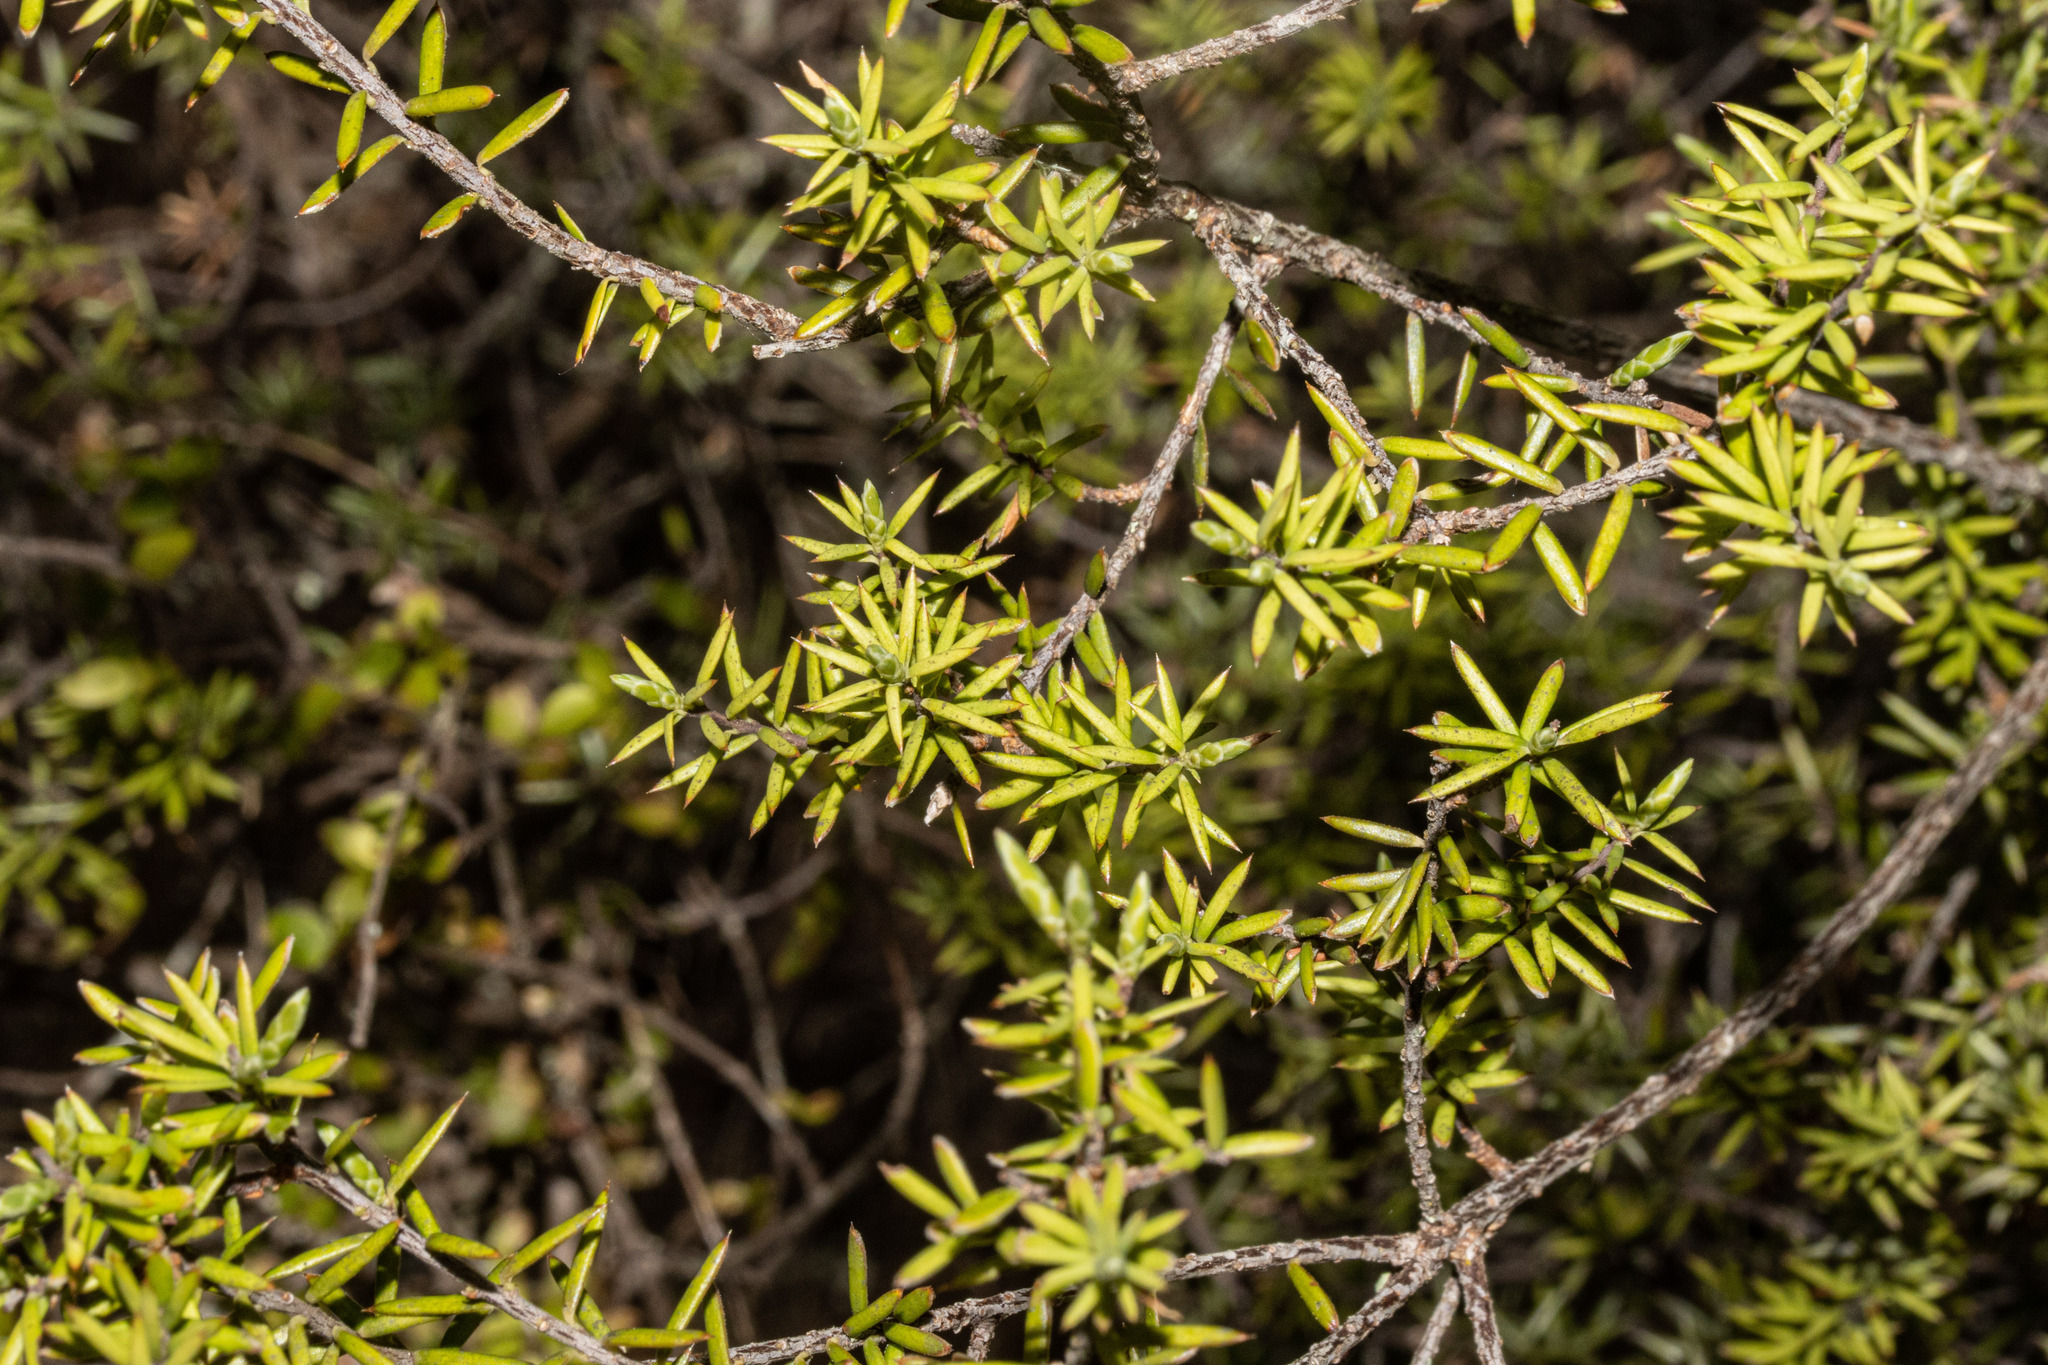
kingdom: Plantae
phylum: Tracheophyta
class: Magnoliopsida
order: Ericales
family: Ericaceae
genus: Leptecophylla
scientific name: Leptecophylla juniperina
